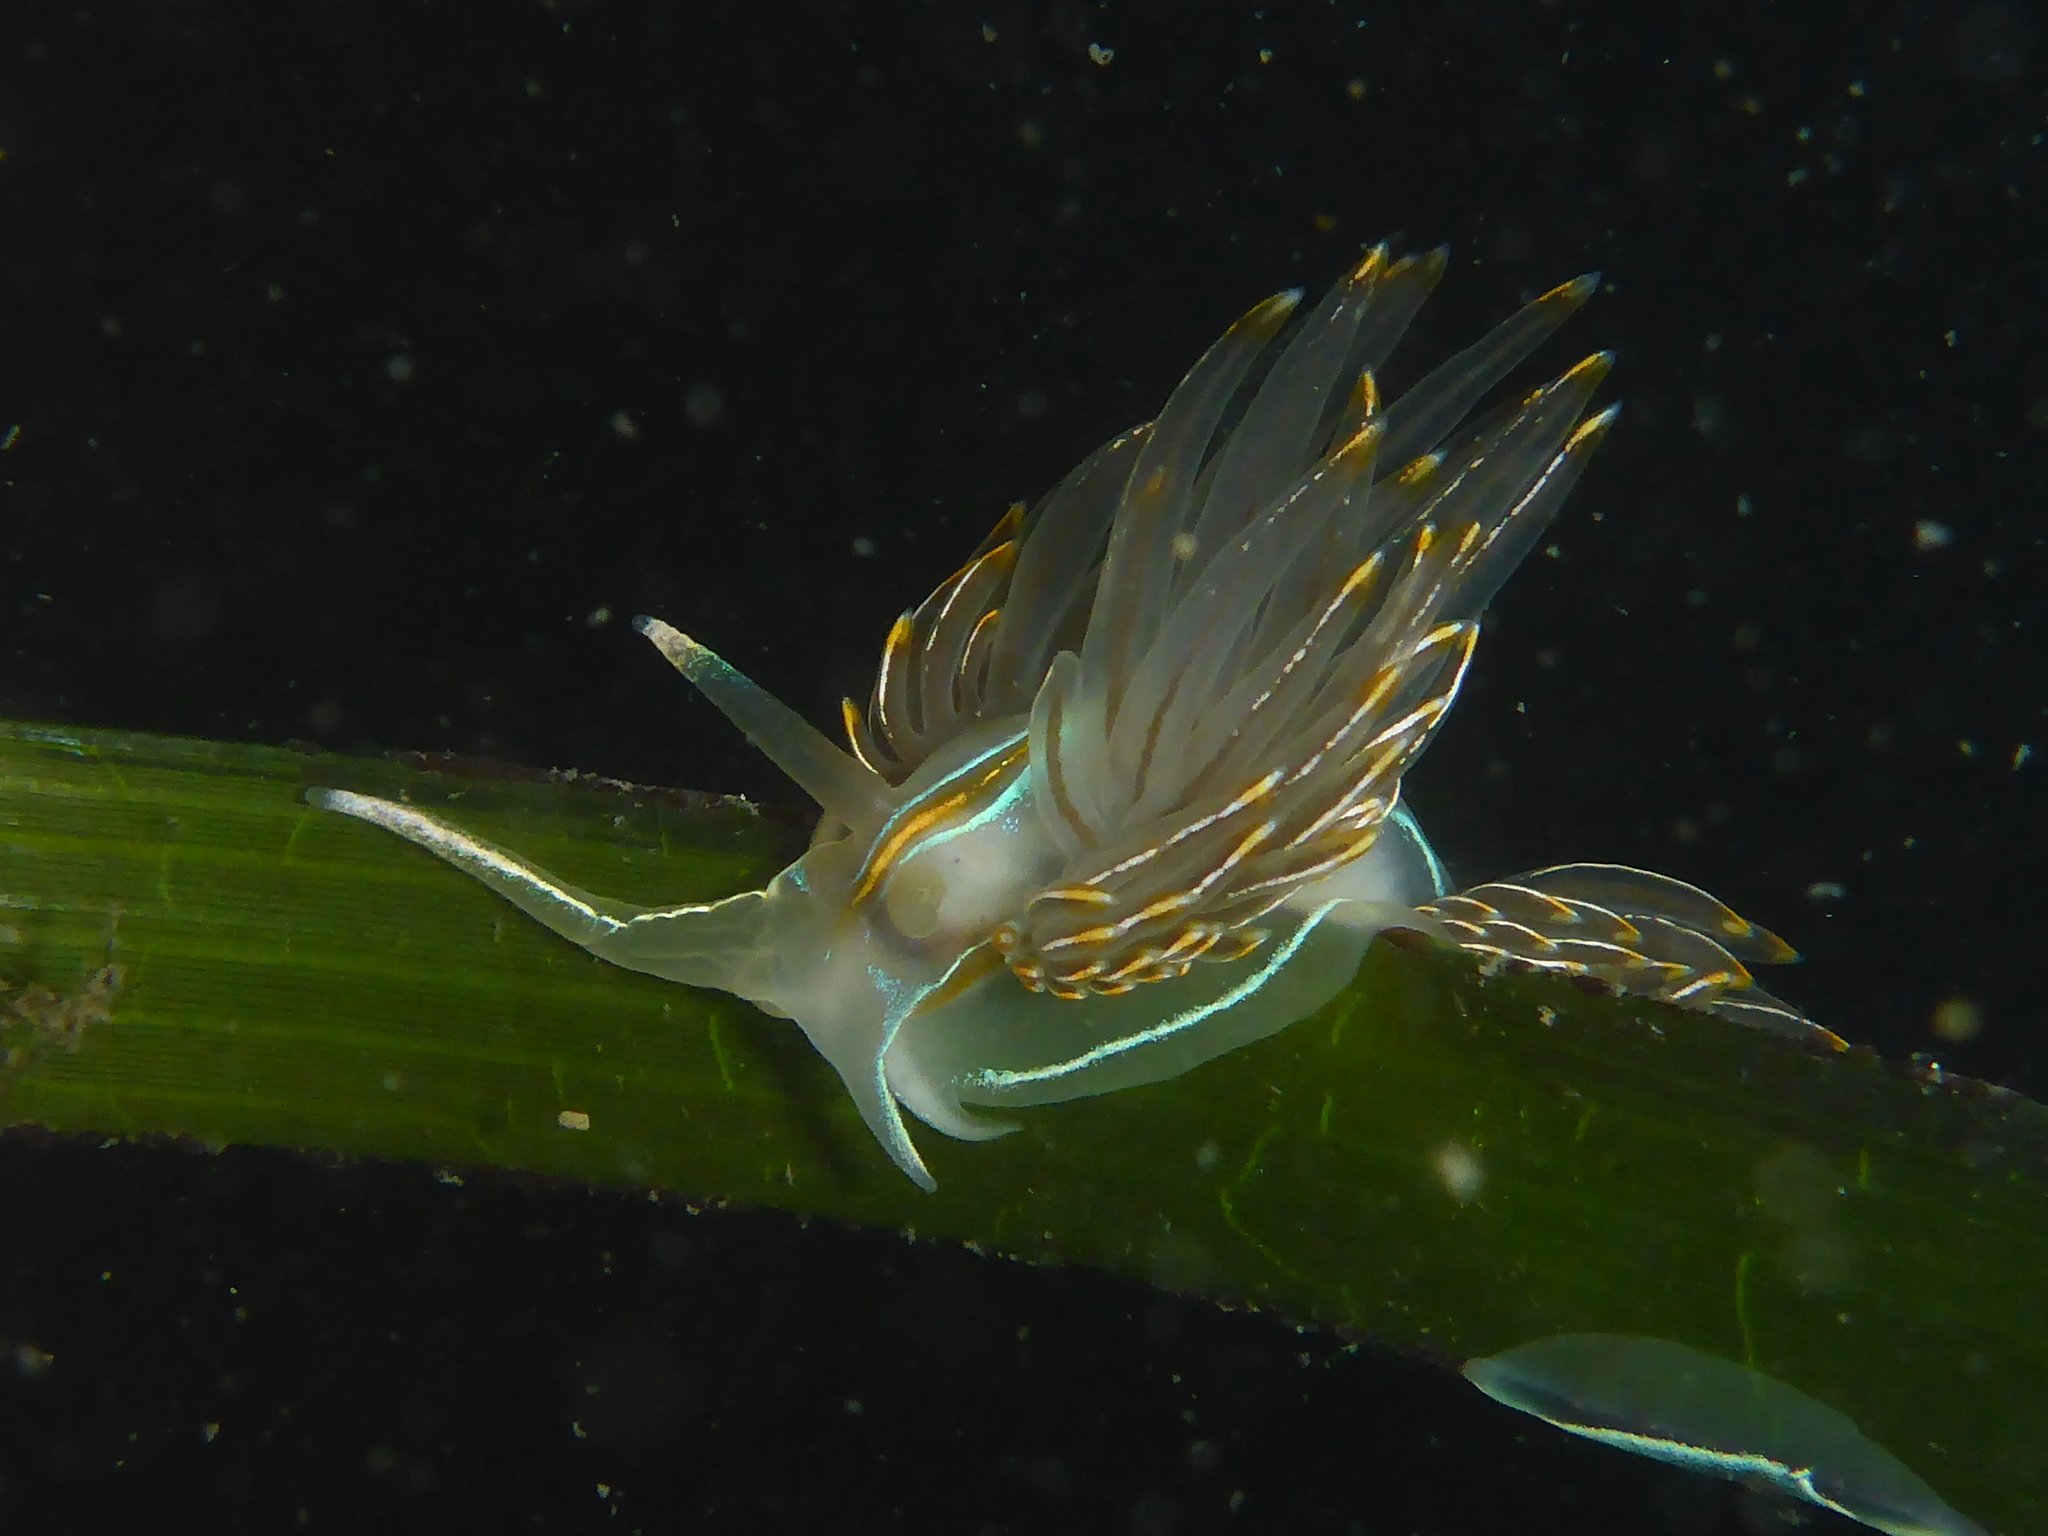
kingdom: Animalia
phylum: Mollusca
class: Gastropoda
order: Nudibranchia
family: Myrrhinidae
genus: Hermissenda
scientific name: Hermissenda crassicornis
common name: Hermissenda
